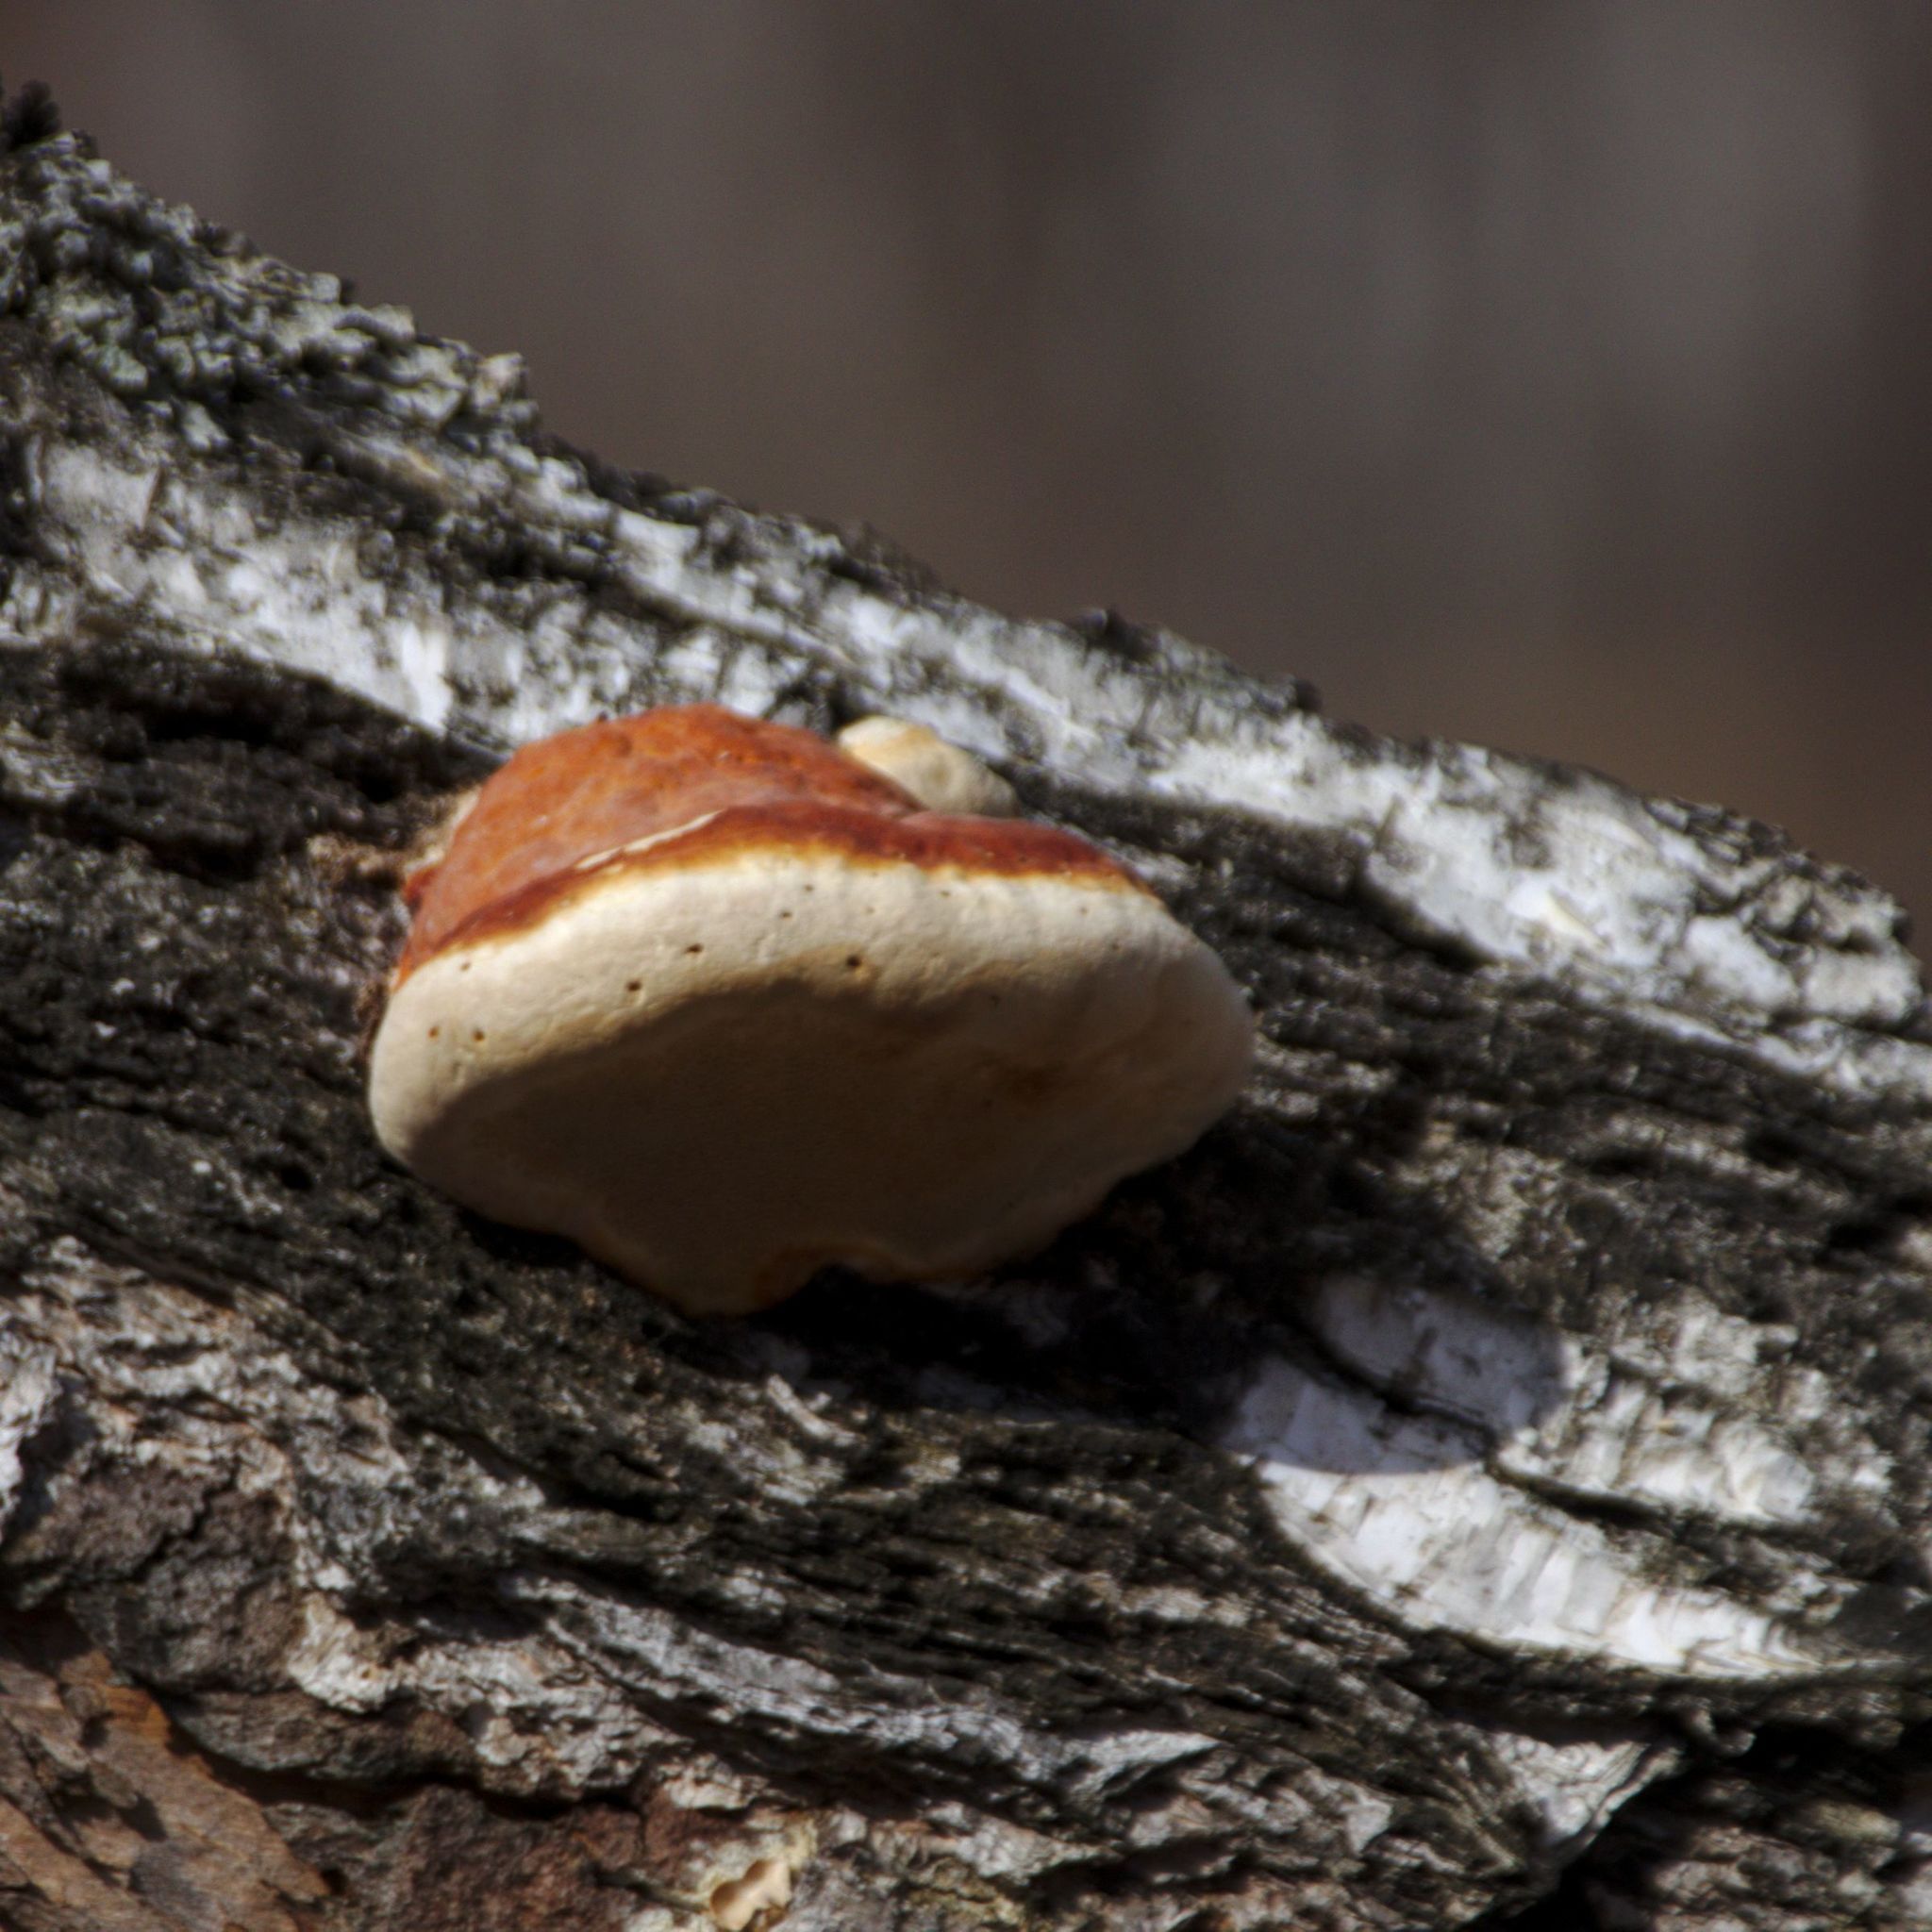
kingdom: Fungi
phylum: Basidiomycota
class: Agaricomycetes
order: Polyporales
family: Fomitopsidaceae
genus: Fomitopsis
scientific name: Fomitopsis pinicola
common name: Red-belted bracket
